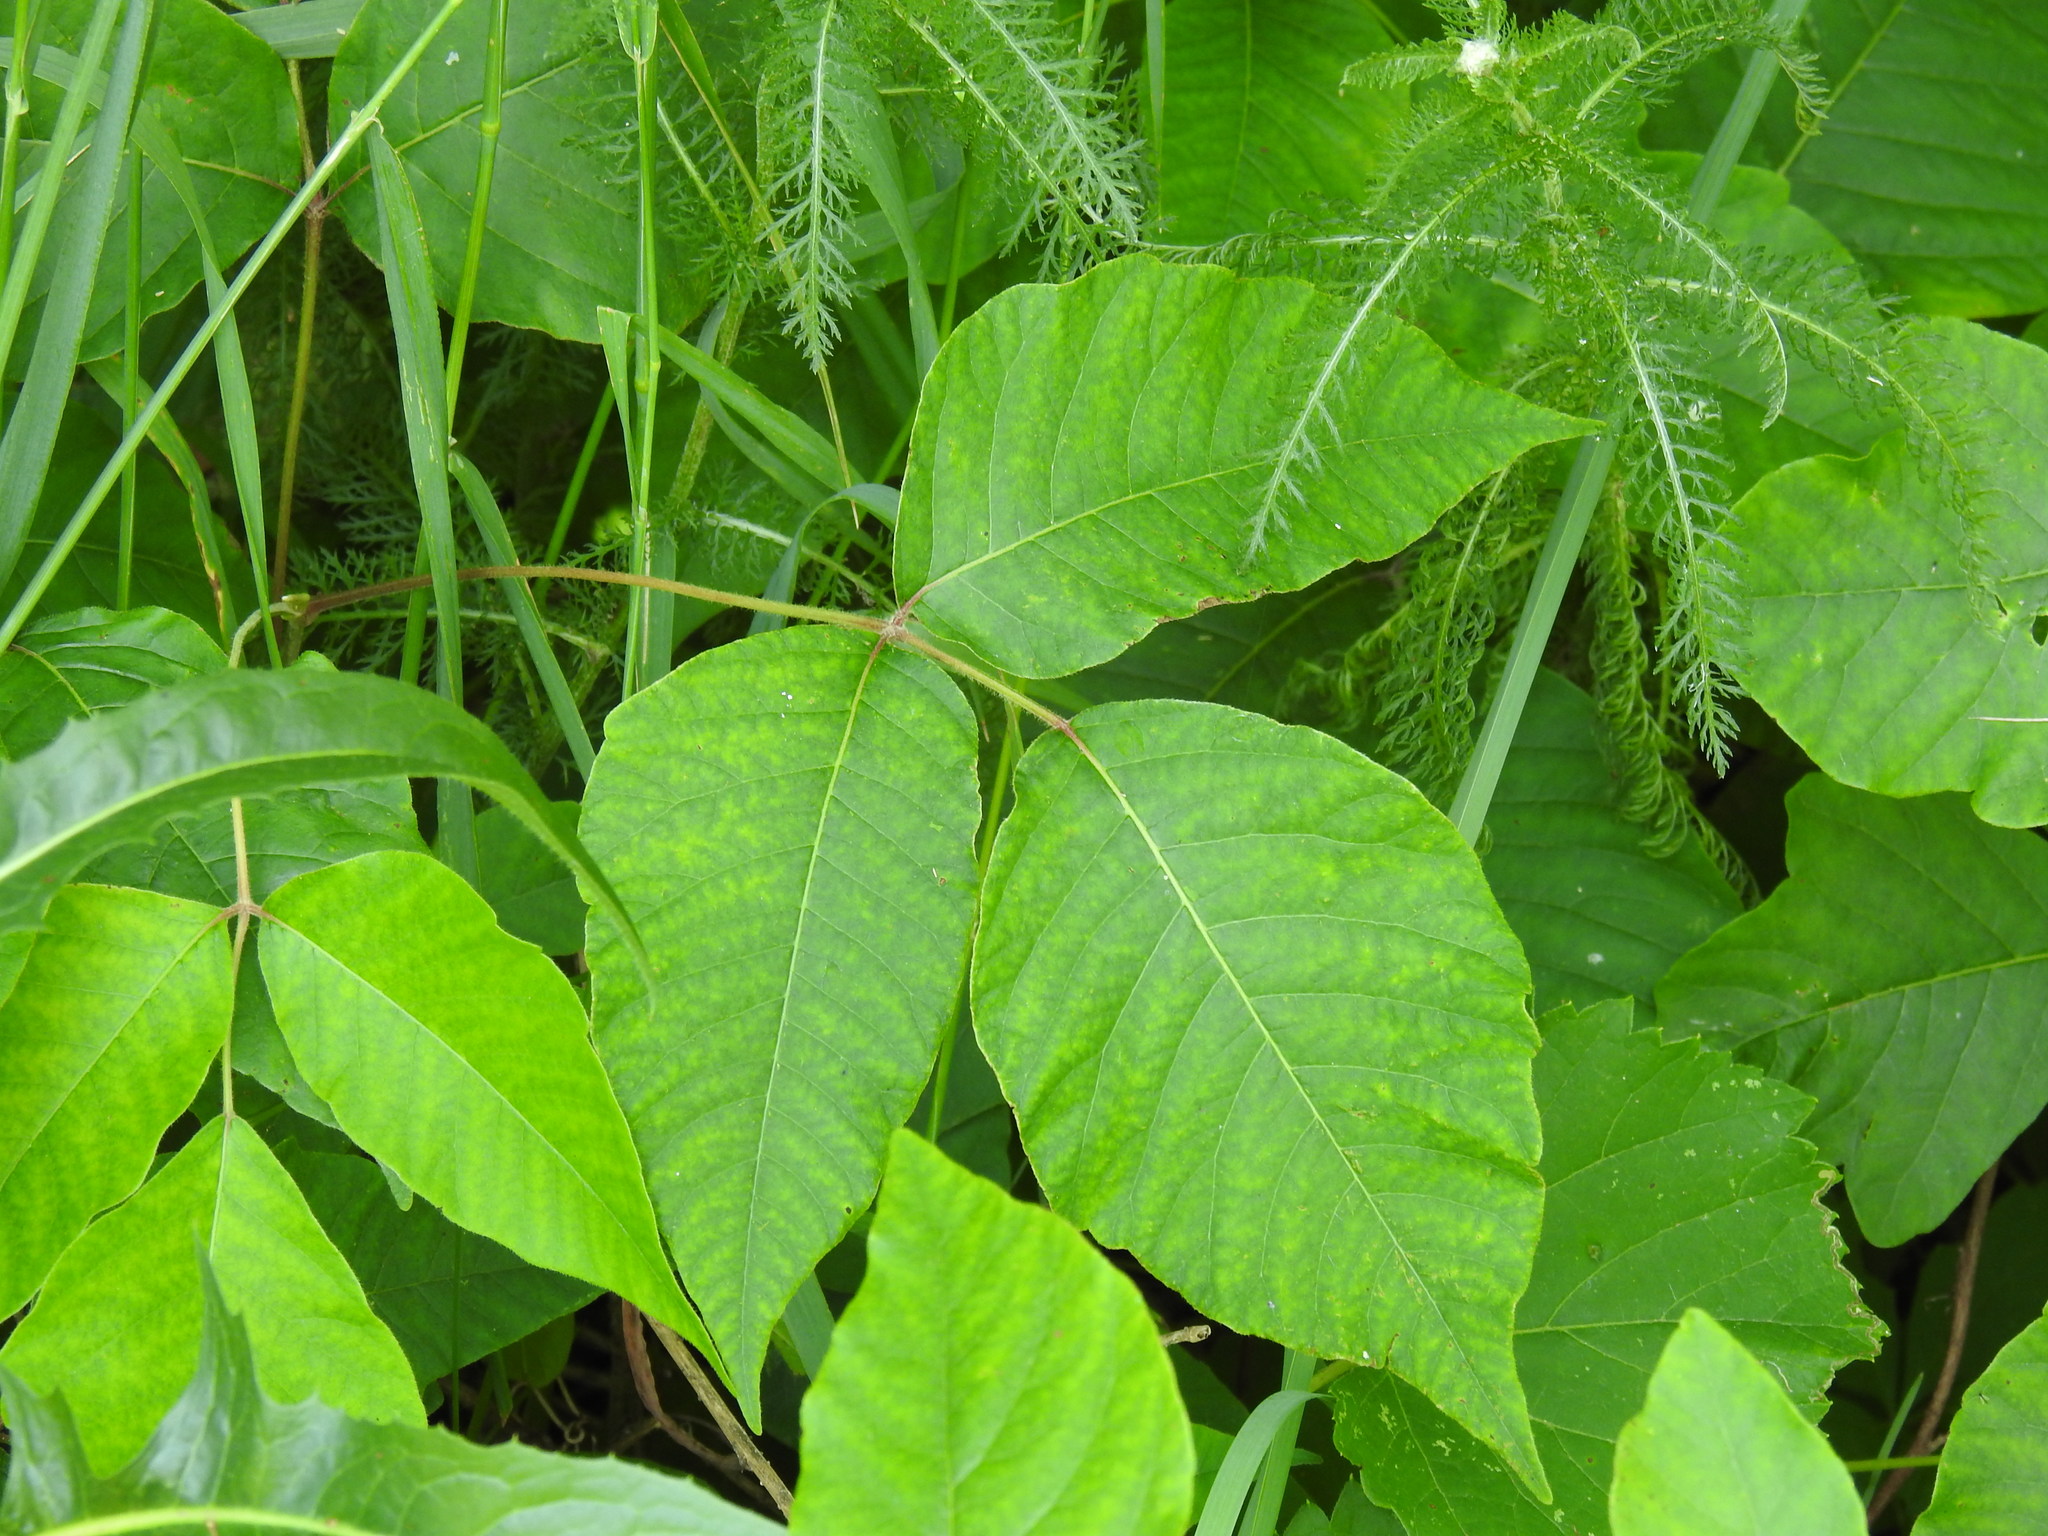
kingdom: Plantae
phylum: Tracheophyta
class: Magnoliopsida
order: Sapindales
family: Anacardiaceae
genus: Toxicodendron
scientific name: Toxicodendron radicans
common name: Poison ivy
